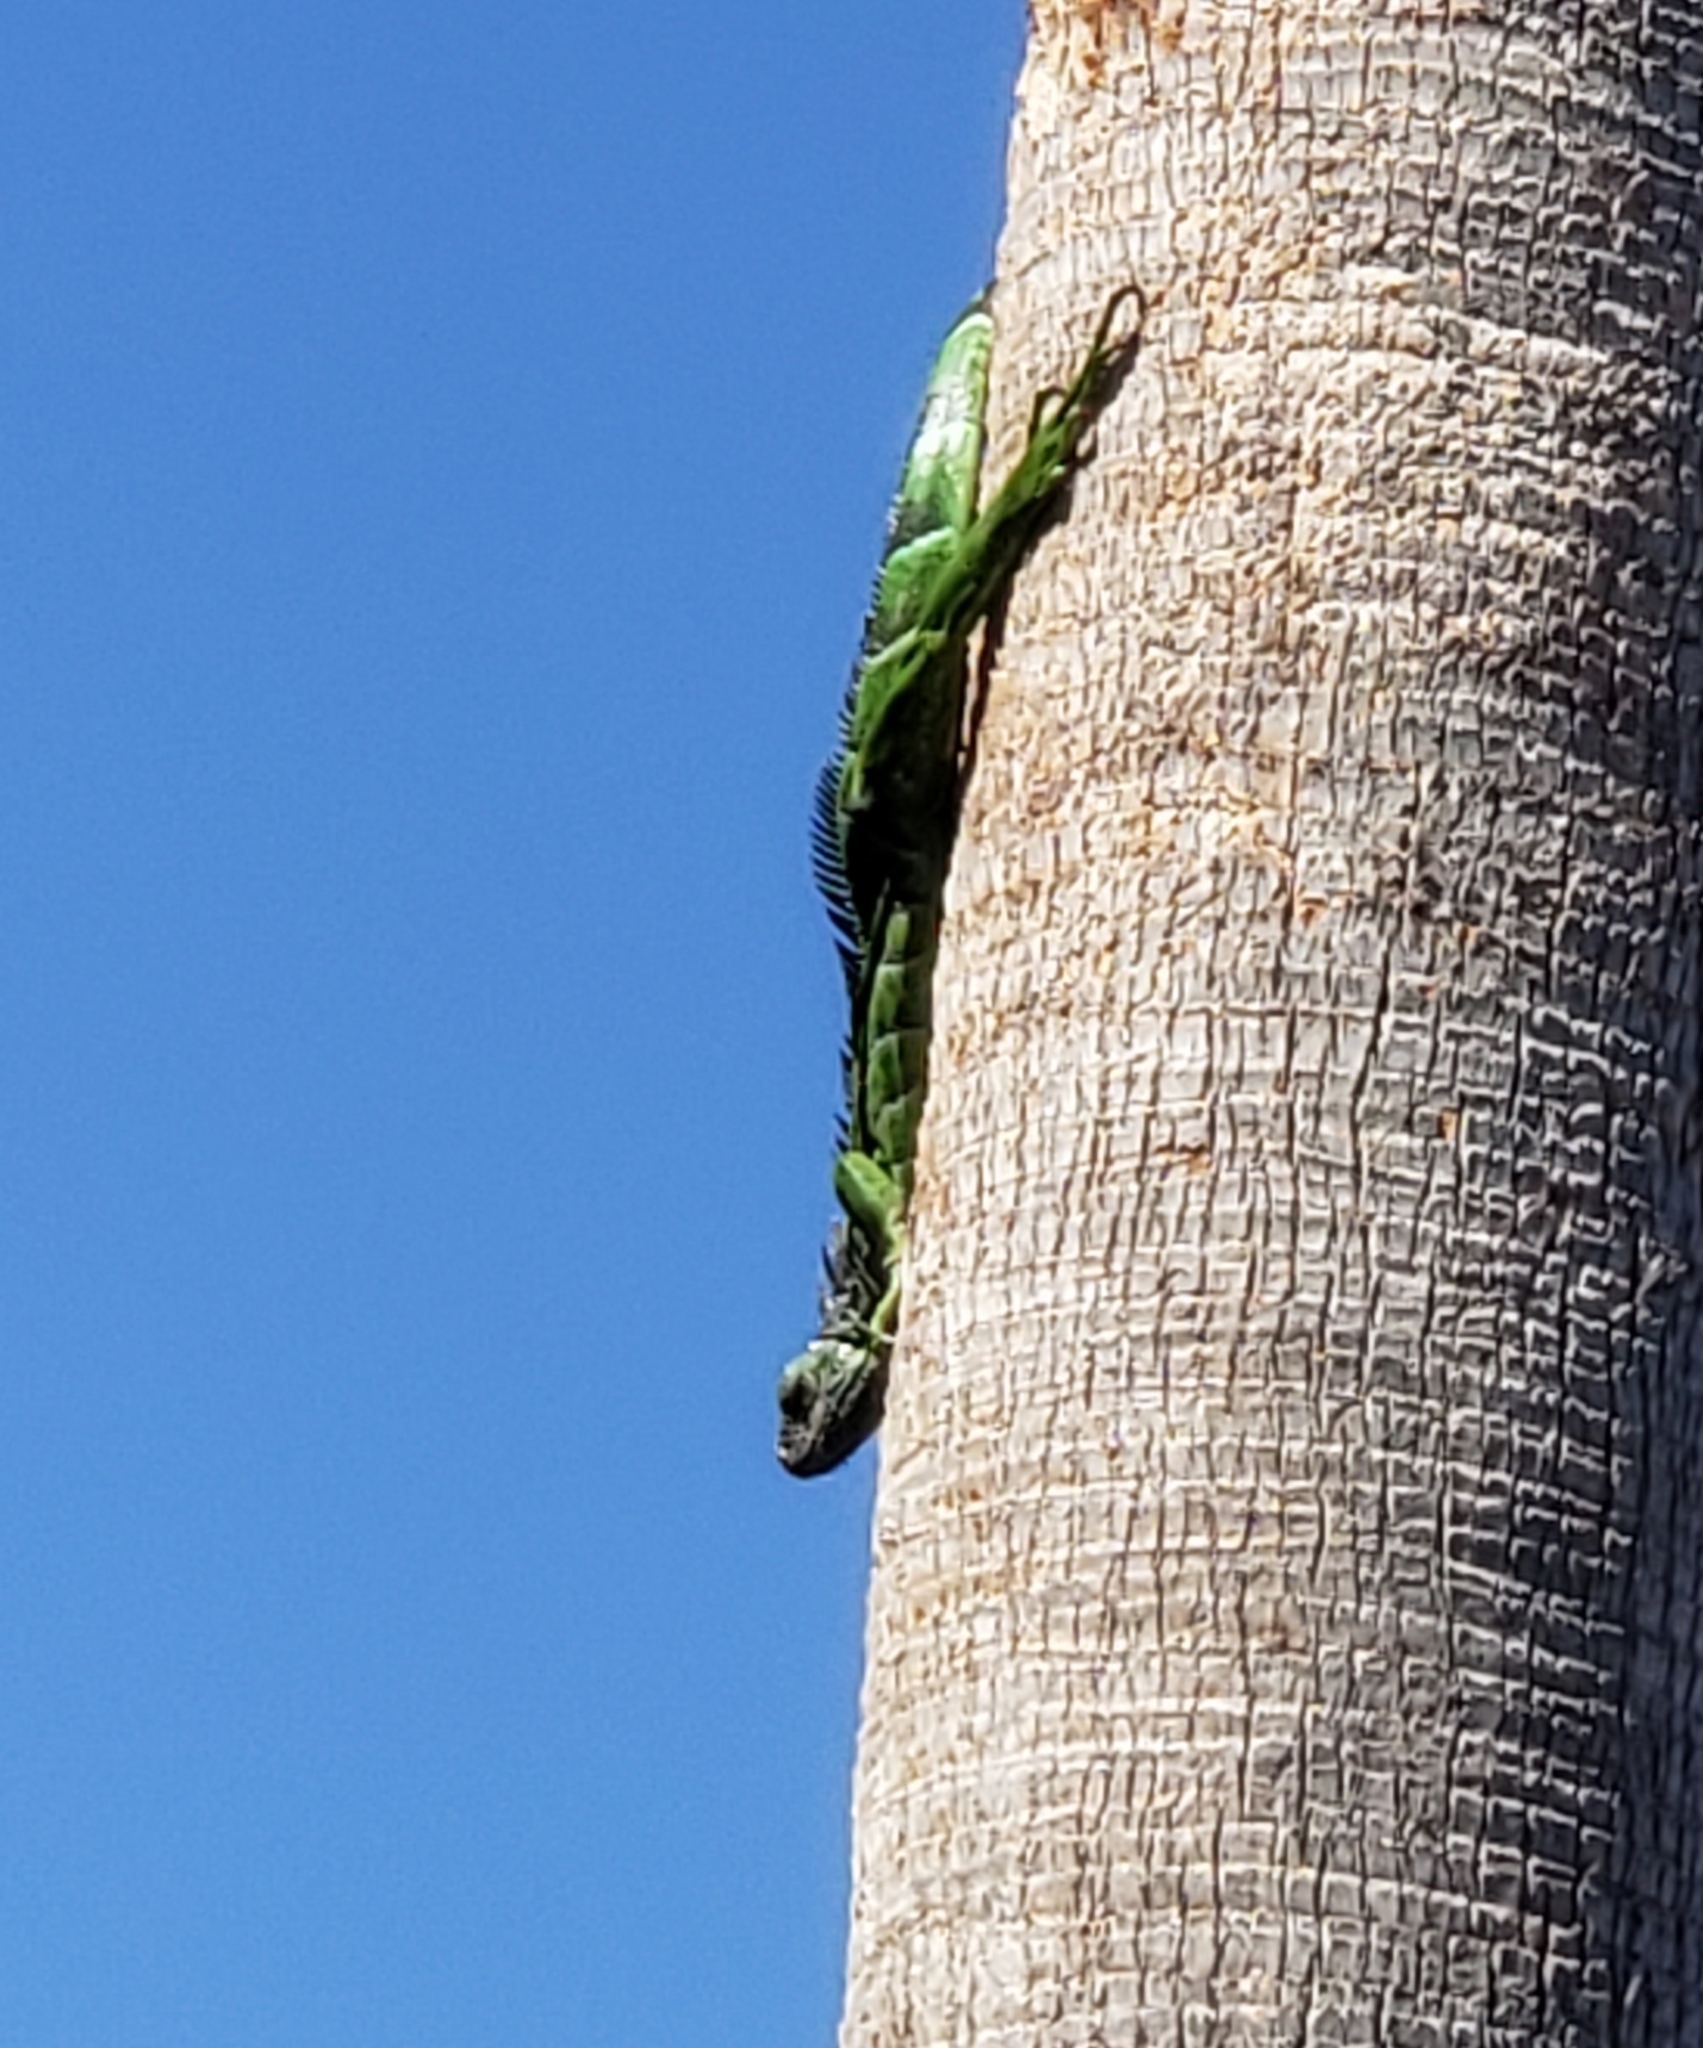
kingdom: Animalia
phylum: Chordata
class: Squamata
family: Iguanidae
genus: Iguana
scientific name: Iguana iguana
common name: Green iguana
